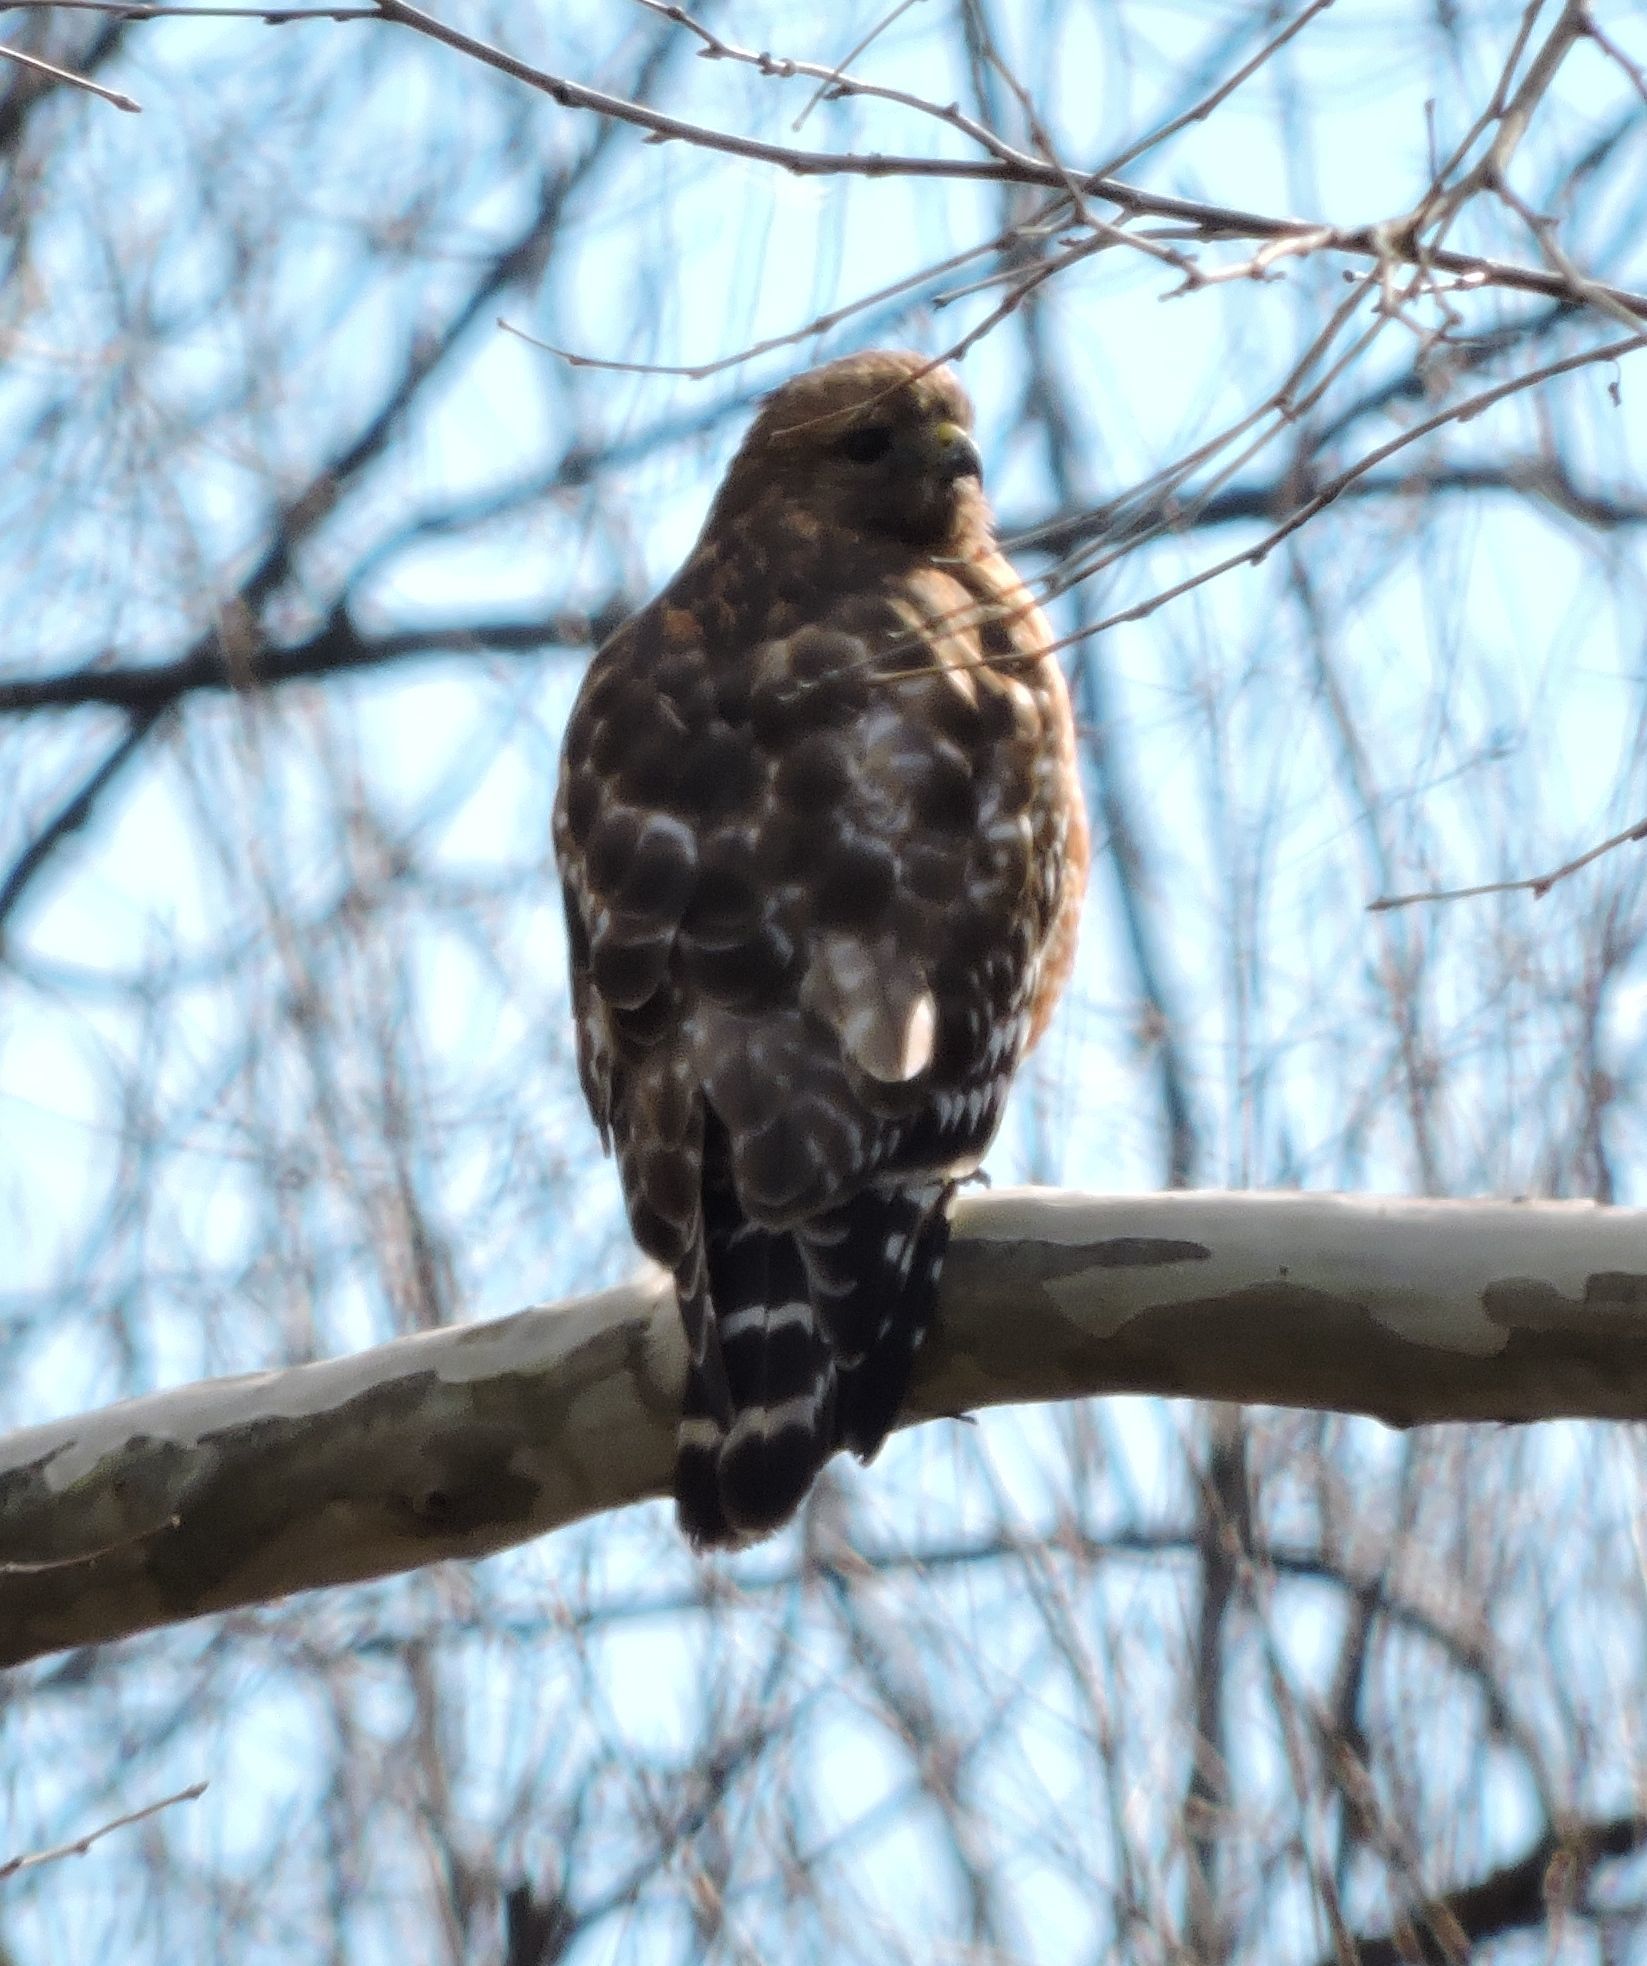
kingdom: Animalia
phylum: Chordata
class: Aves
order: Accipitriformes
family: Accipitridae
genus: Buteo
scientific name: Buteo lineatus
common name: Red-shouldered hawk
